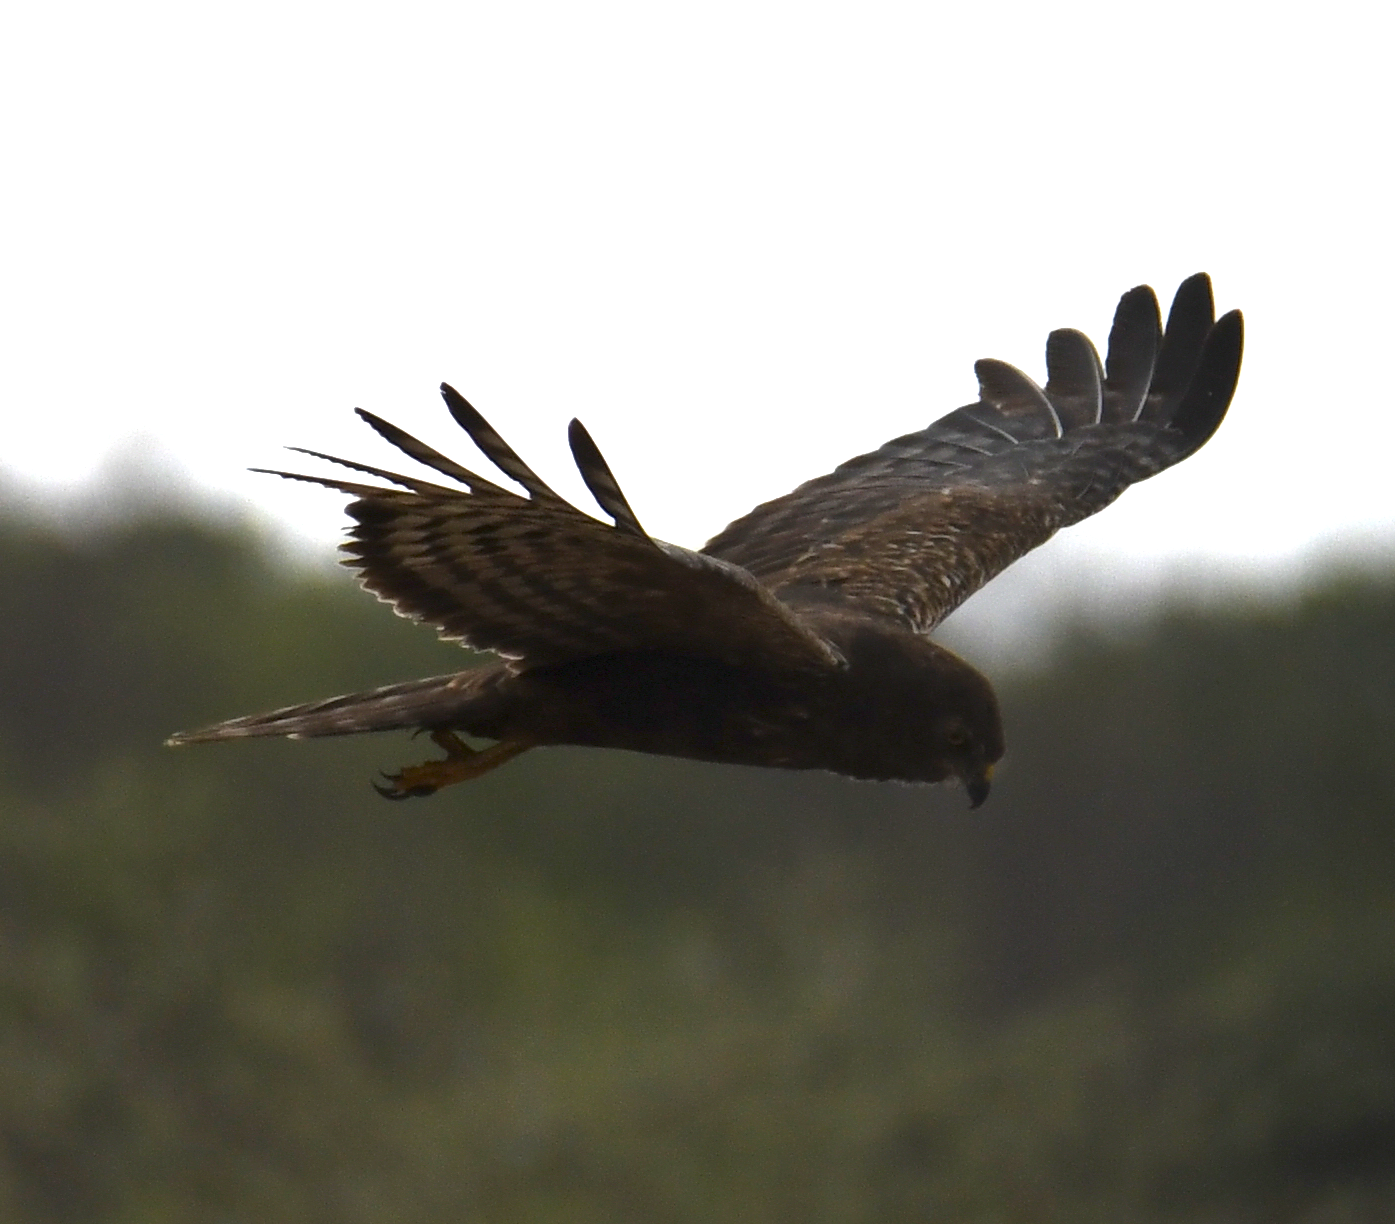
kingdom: Animalia
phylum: Chordata
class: Aves
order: Accipitriformes
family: Accipitridae
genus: Circus
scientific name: Circus ranivorus
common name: African marsh-harrier
